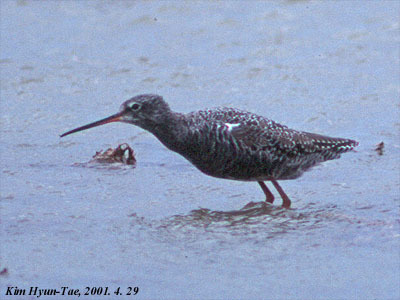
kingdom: Animalia
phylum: Chordata
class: Aves
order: Charadriiformes
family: Scolopacidae
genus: Tringa
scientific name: Tringa erythropus
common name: Spotted redshank
